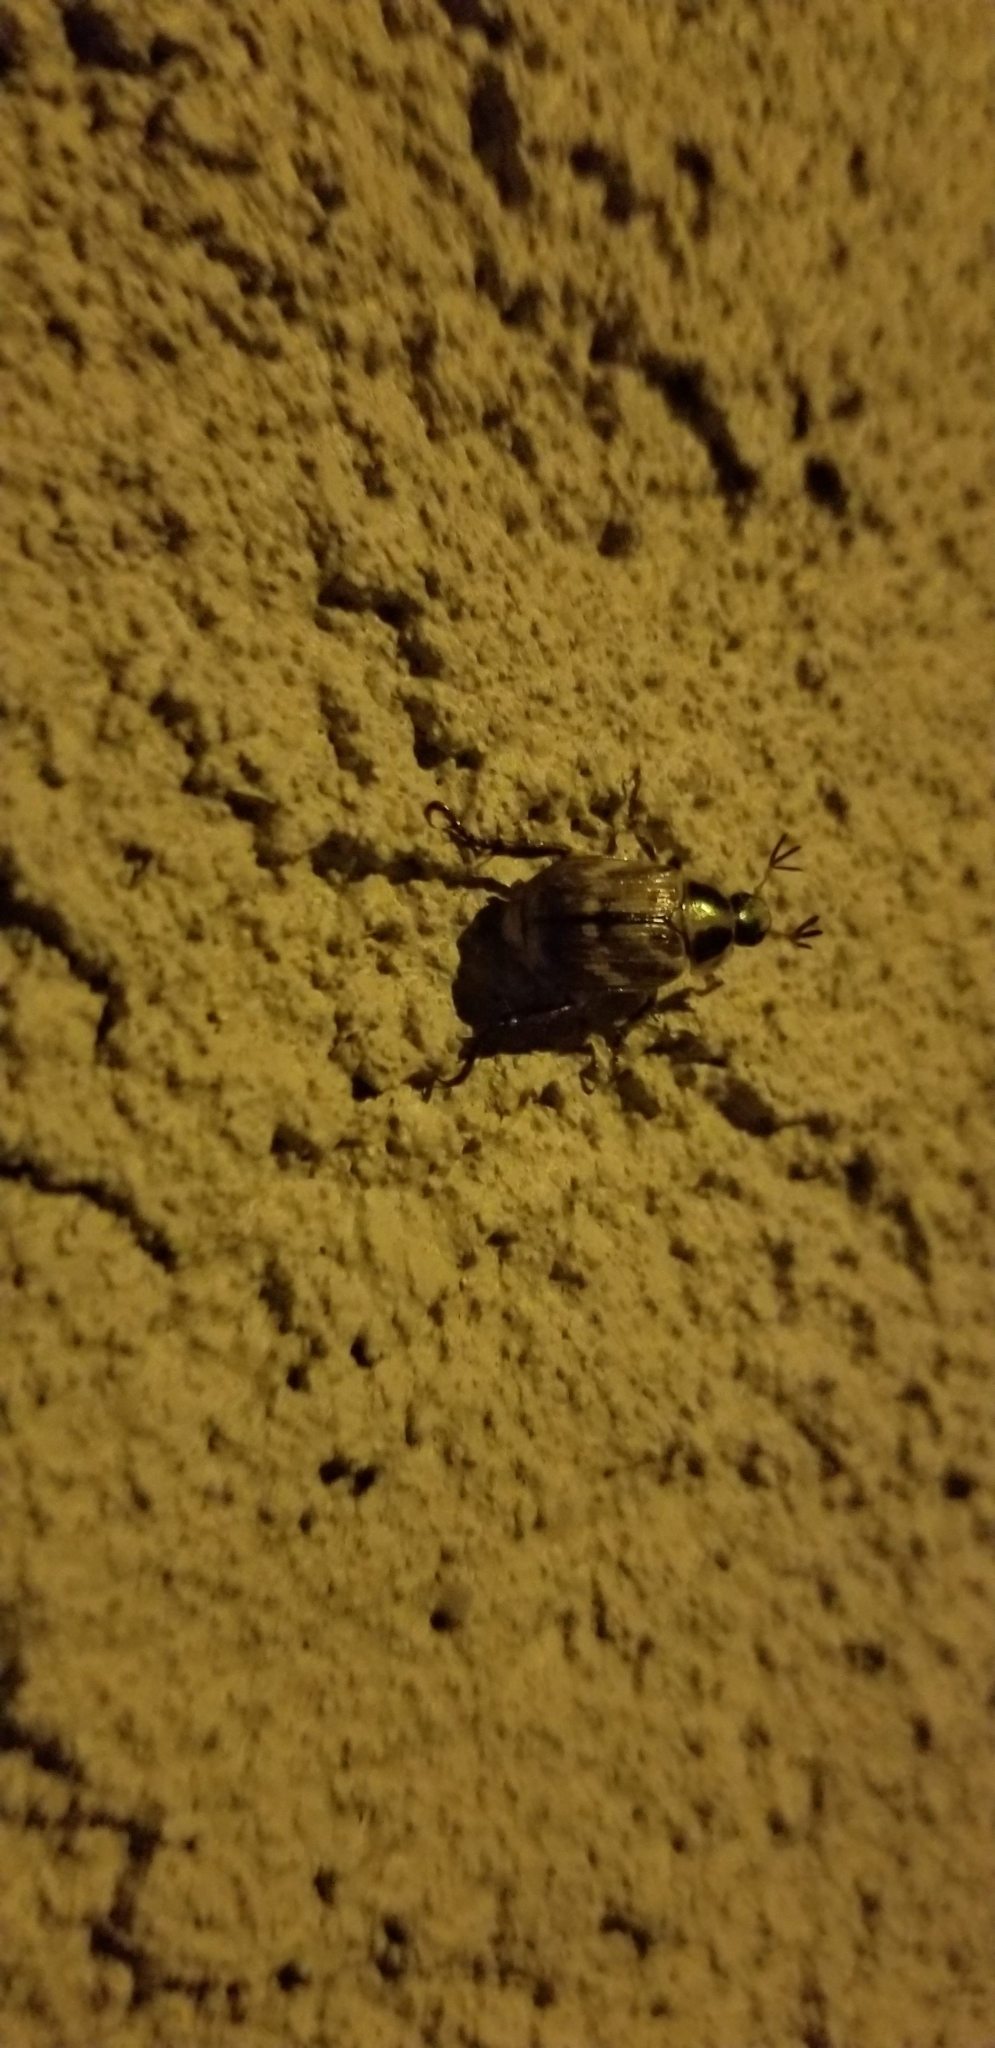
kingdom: Animalia
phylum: Arthropoda
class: Insecta
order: Coleoptera
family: Scarabaeidae
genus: Exomala
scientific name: Exomala orientalis
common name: Oriental beetle
